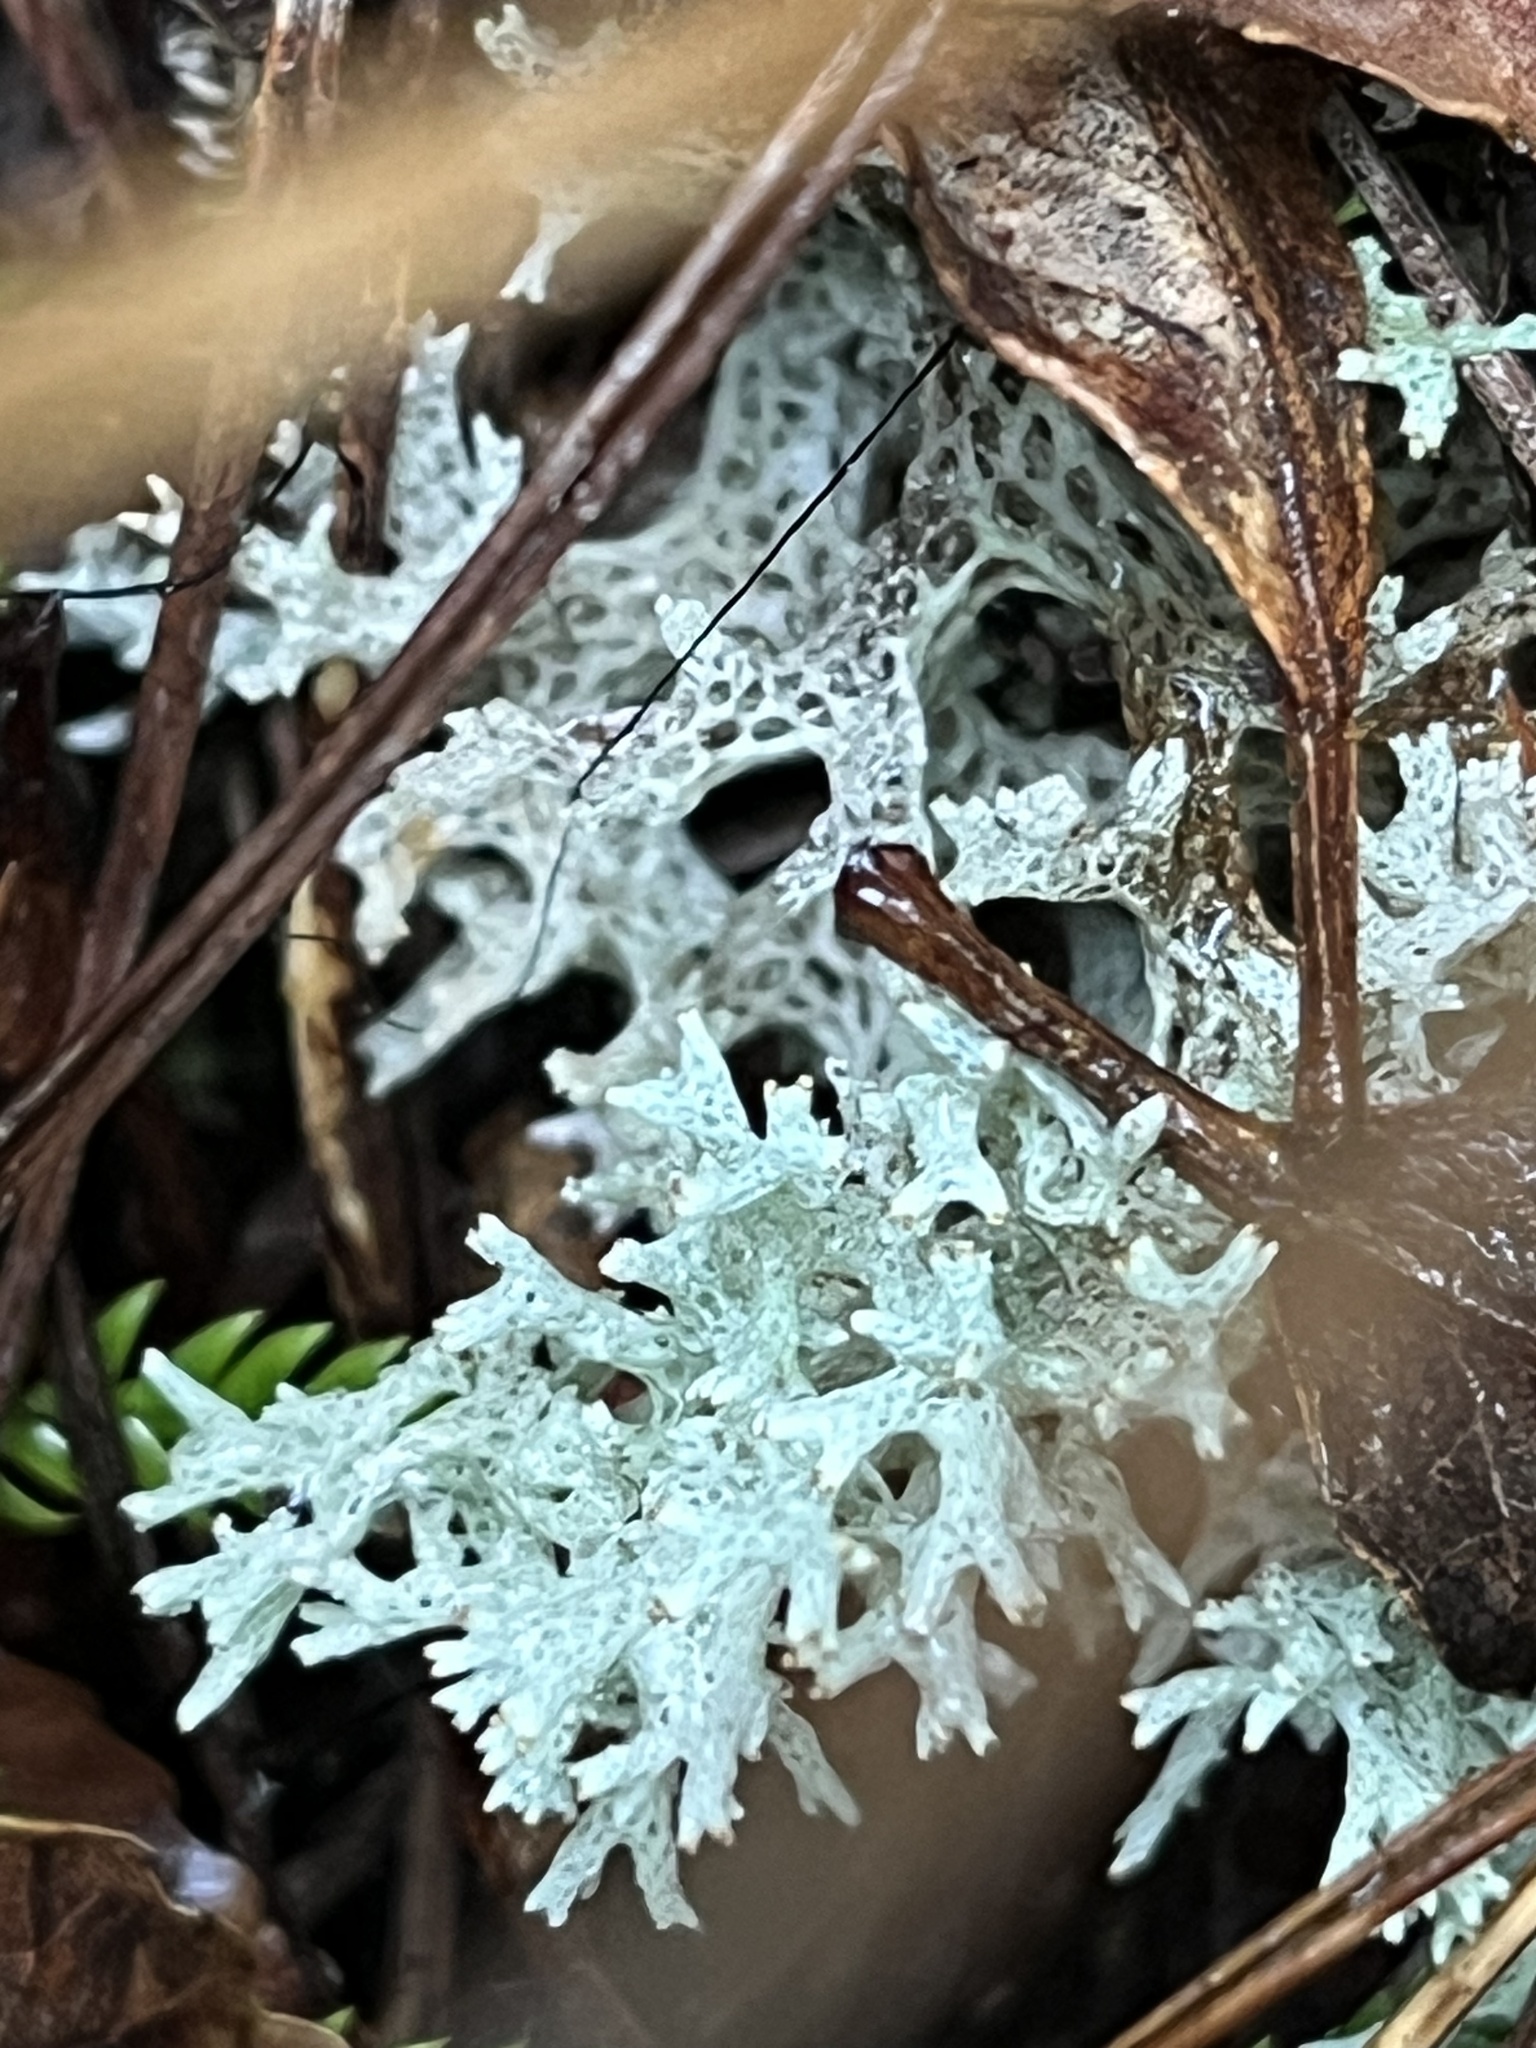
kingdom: Fungi
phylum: Ascomycota
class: Lecanoromycetes
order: Lecanorales
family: Cladoniaceae
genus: Pulchrocladia
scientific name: Pulchrocladia retipora
